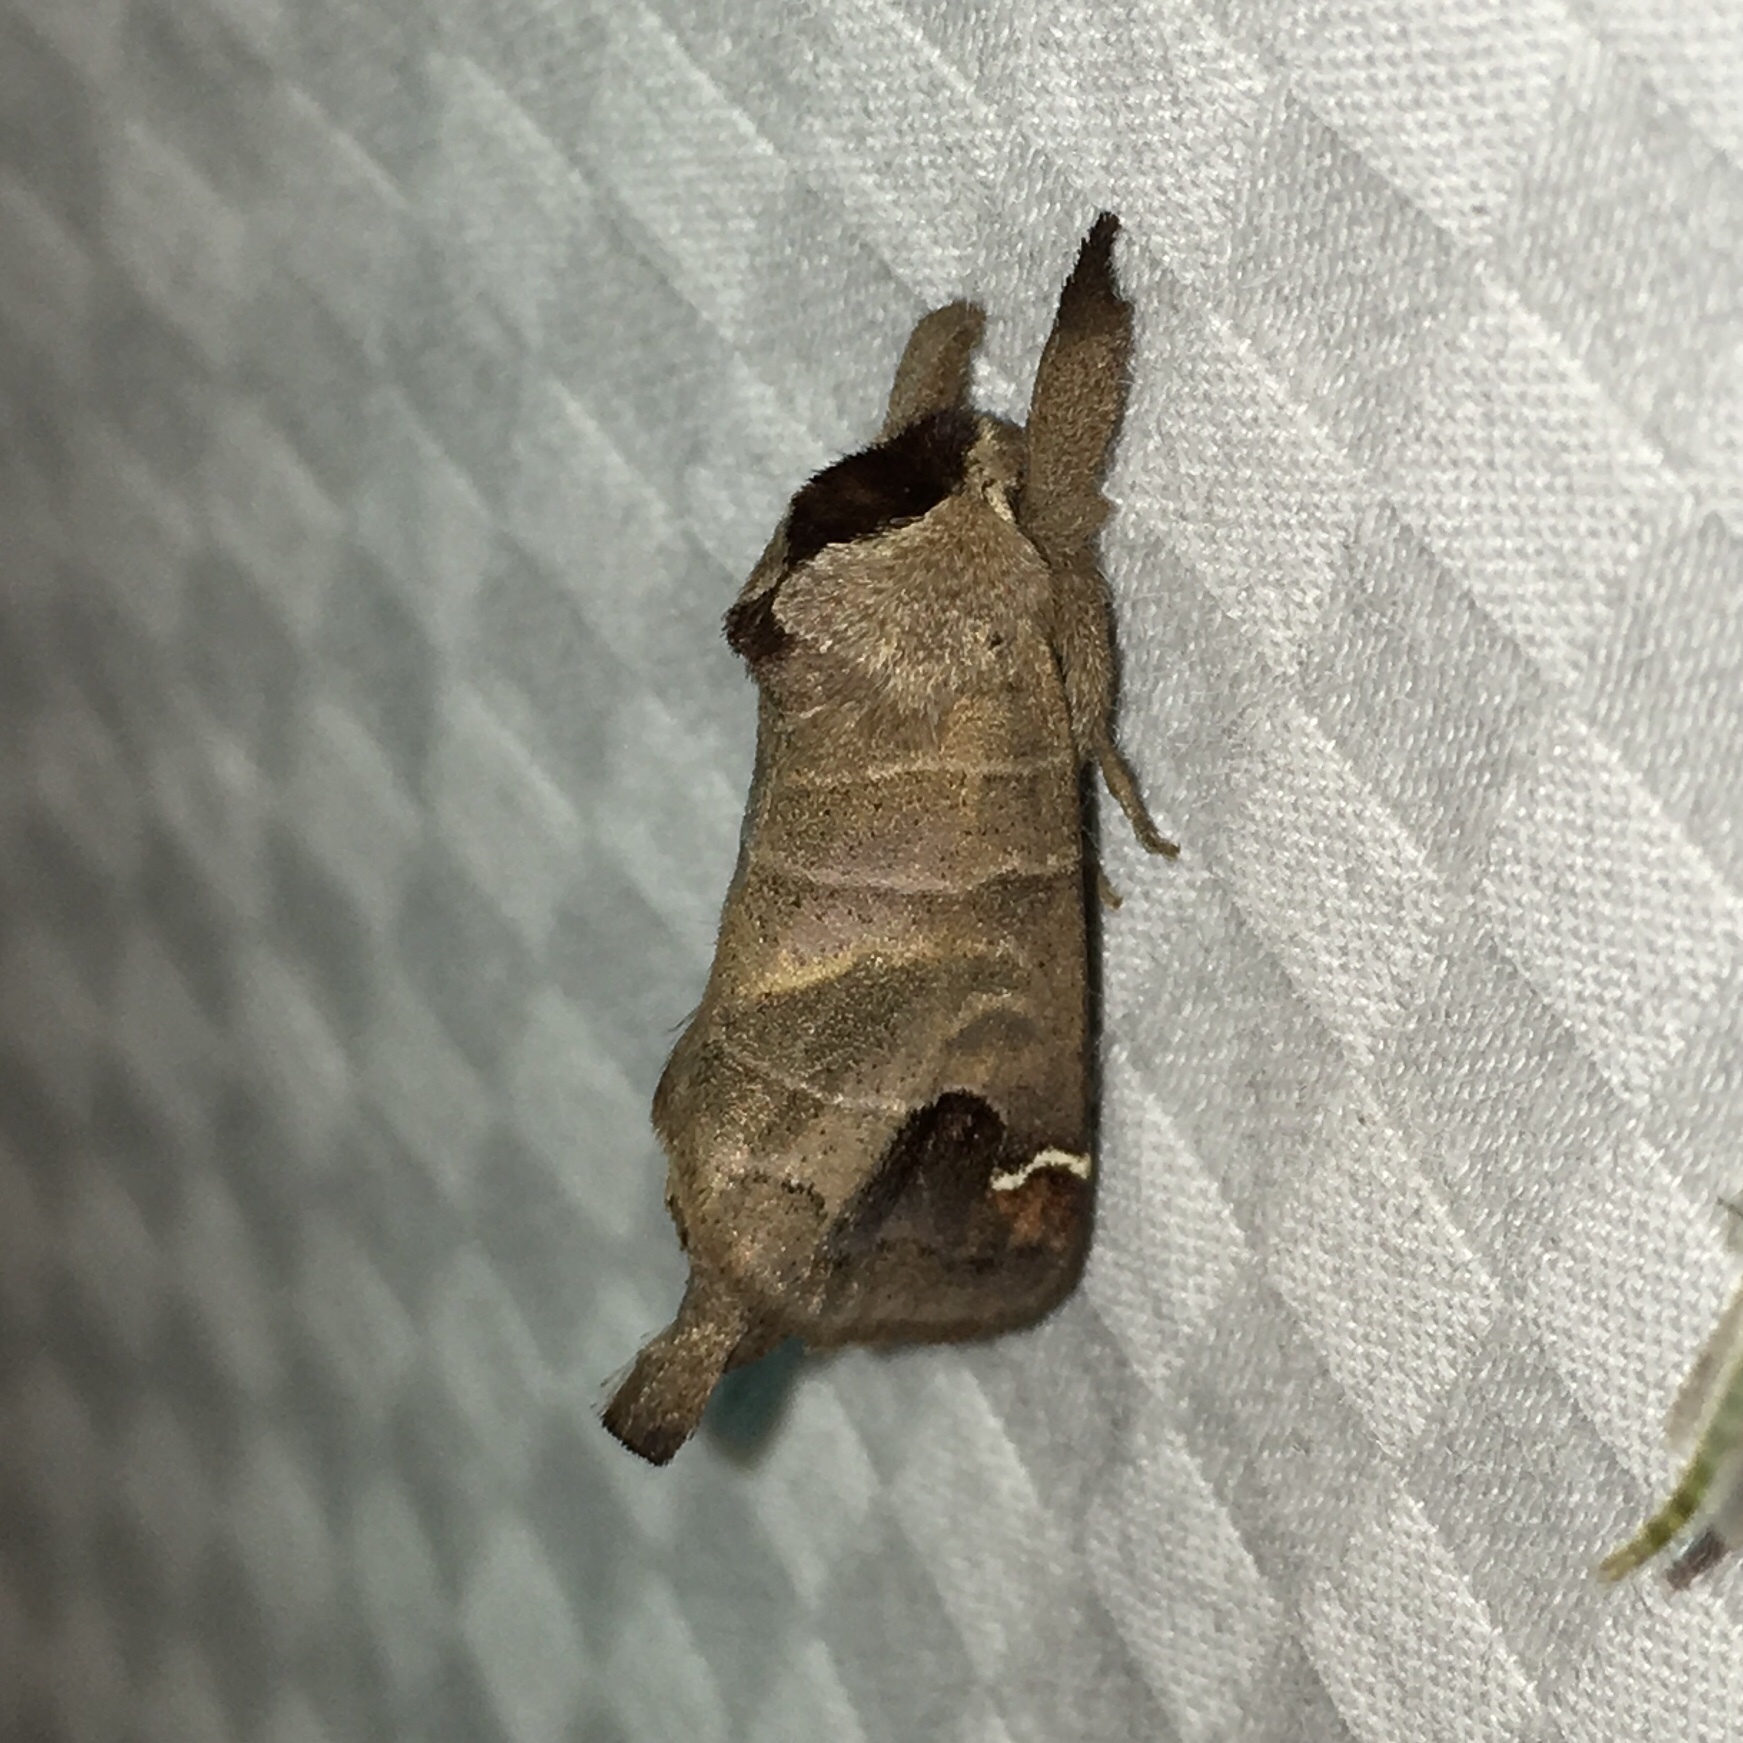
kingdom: Animalia
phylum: Arthropoda
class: Insecta
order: Lepidoptera
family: Notodontidae
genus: Clostera
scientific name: Clostera albosigma
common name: Sigmoid prominent
